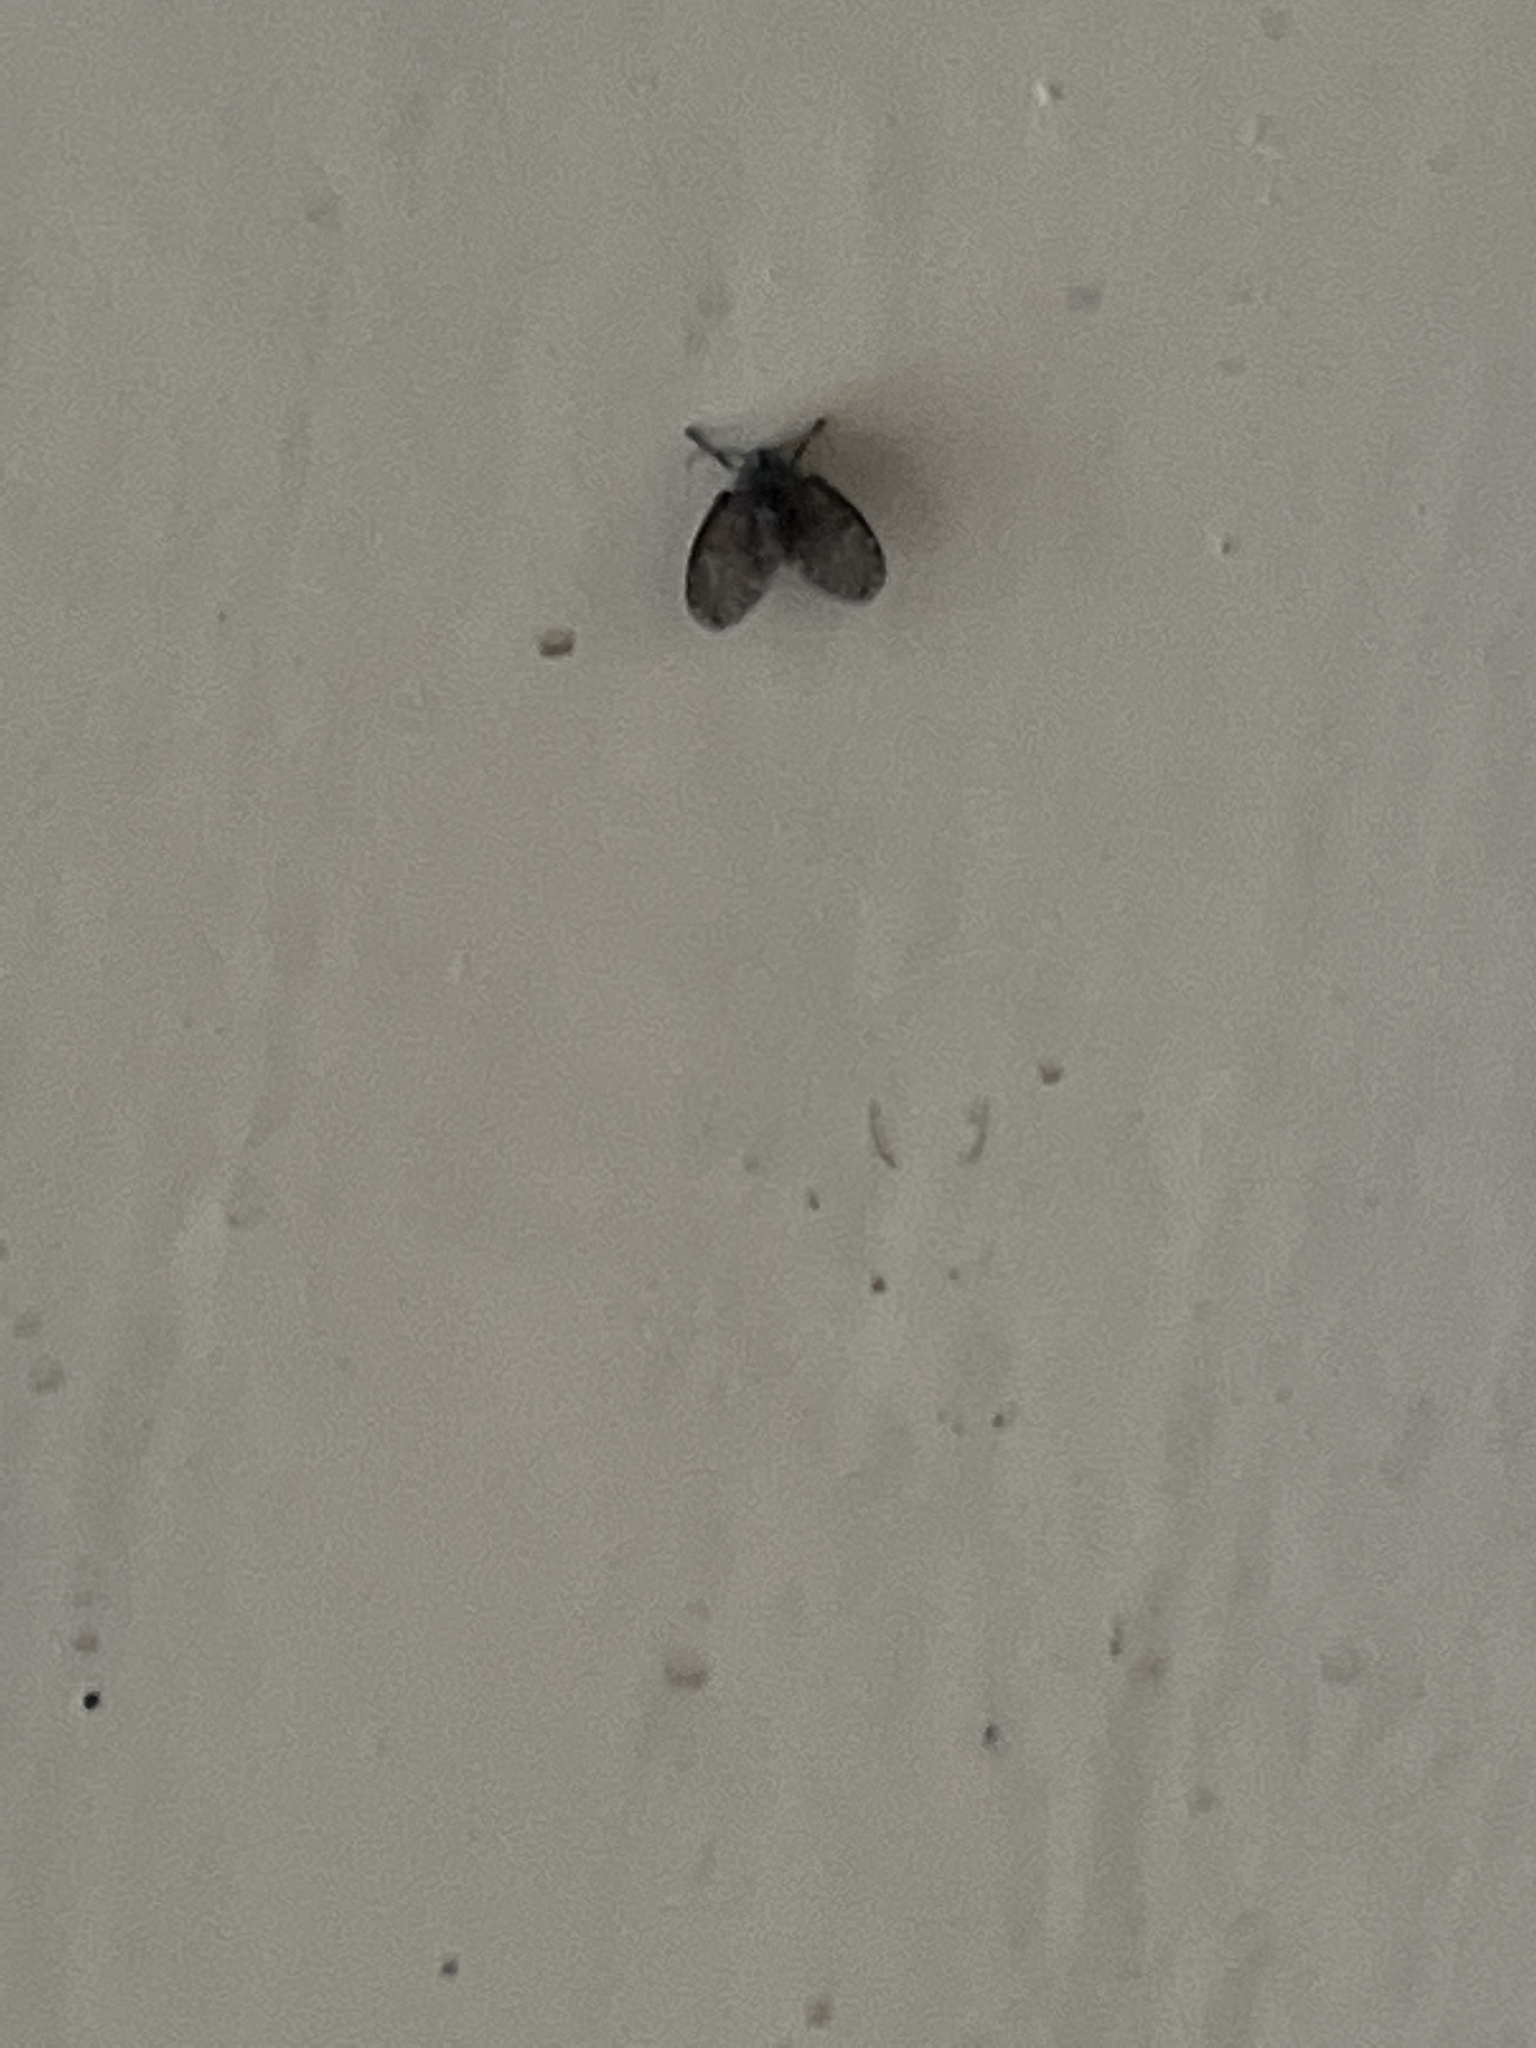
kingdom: Animalia
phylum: Arthropoda
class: Insecta
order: Diptera
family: Psychodidae
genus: Clogmia
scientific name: Clogmia albipunctatus
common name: White-spotted moth fly
